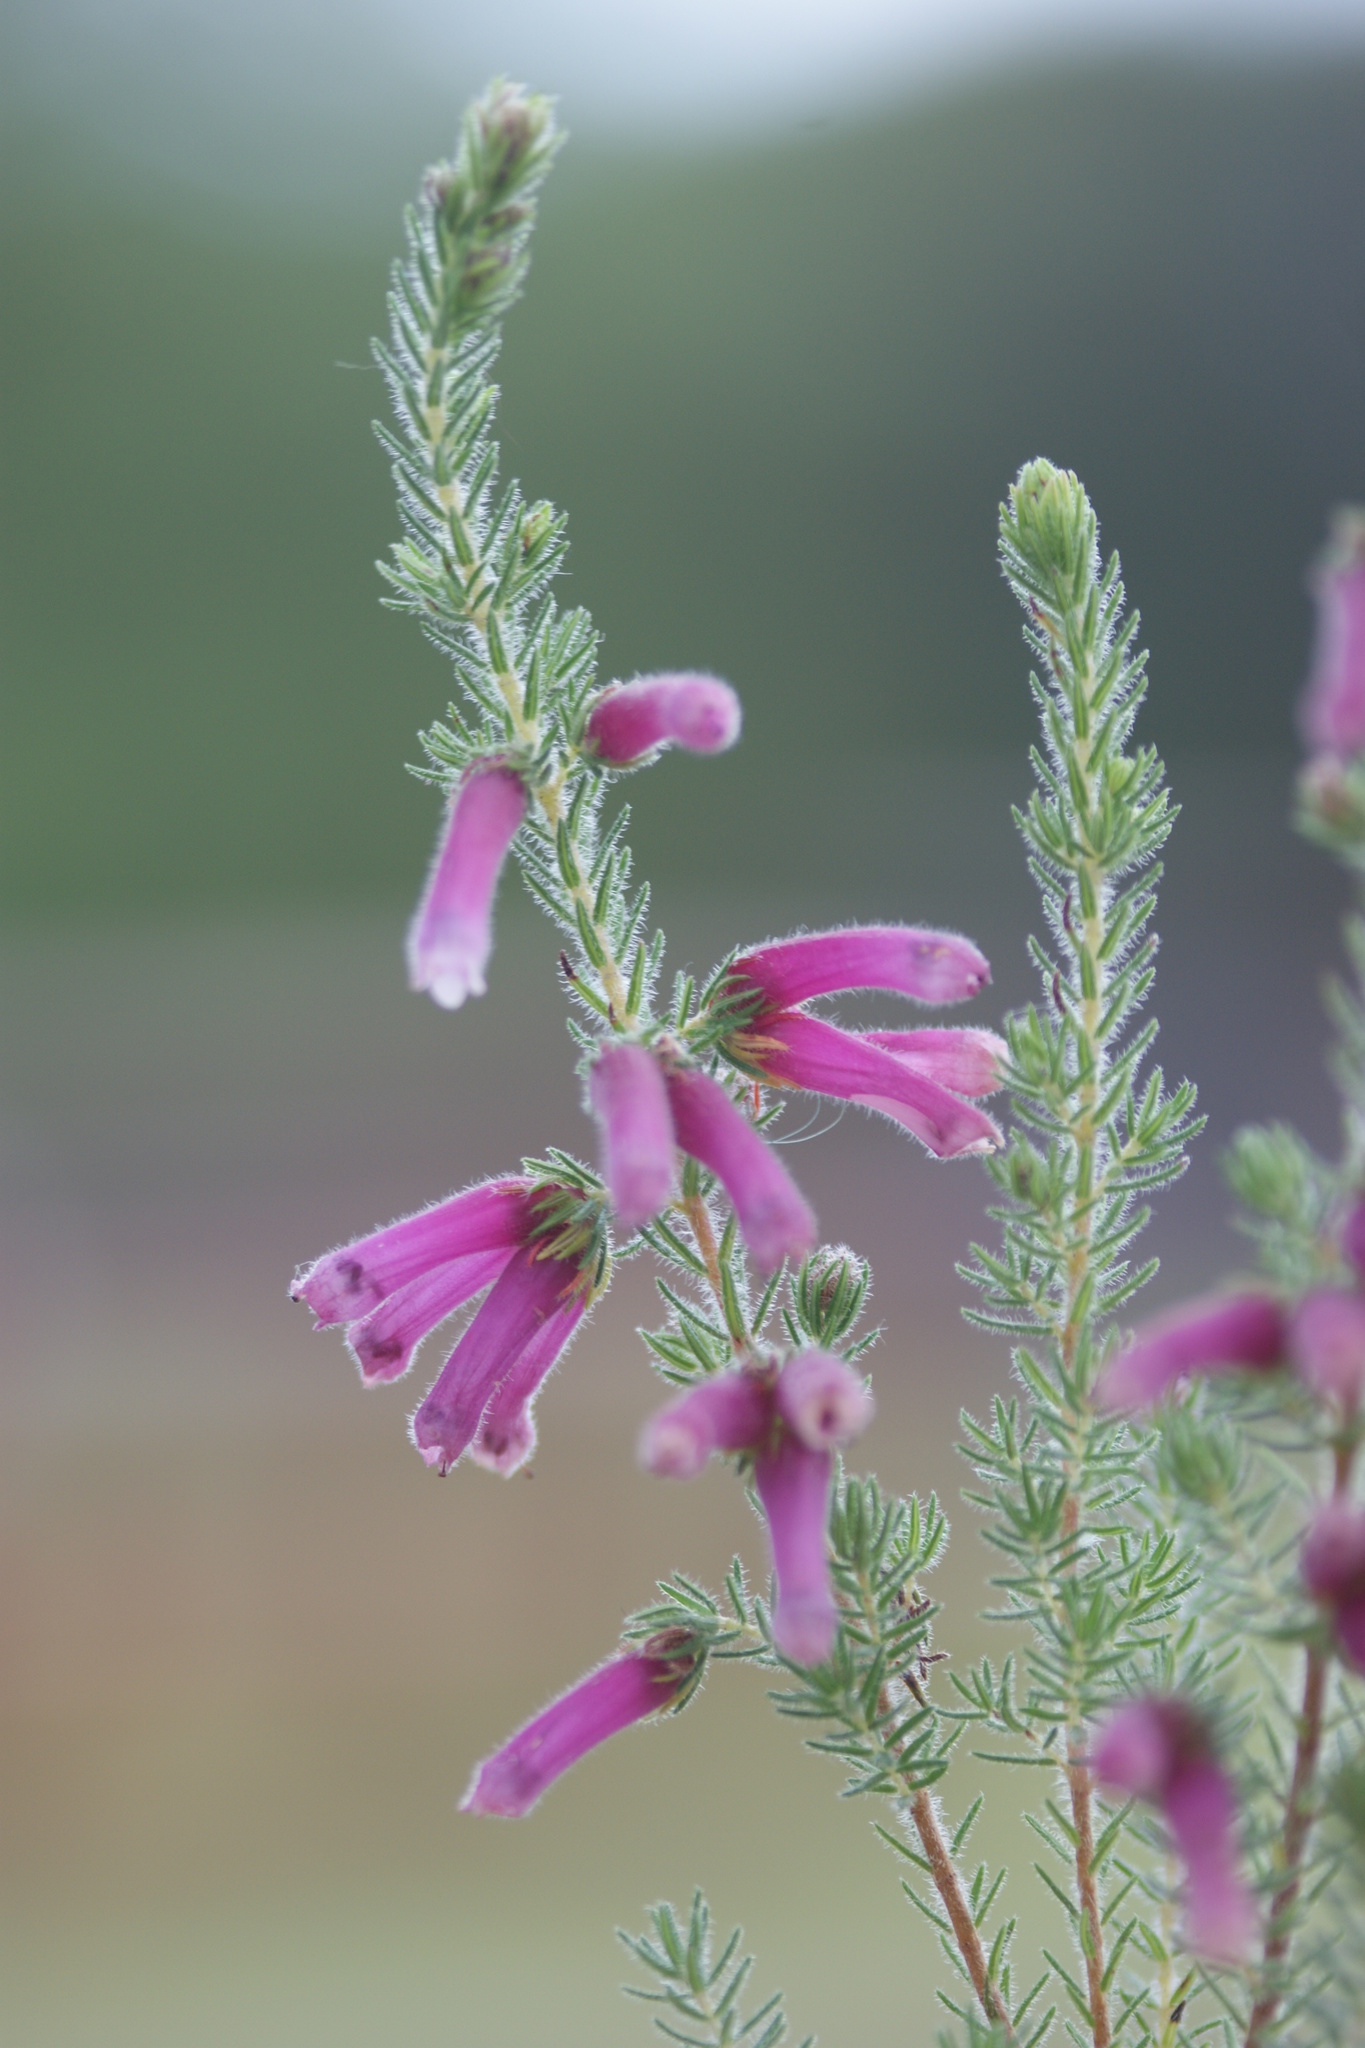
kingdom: Plantae
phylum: Tracheophyta
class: Magnoliopsida
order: Ericales
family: Ericaceae
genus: Erica
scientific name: Erica latituba
